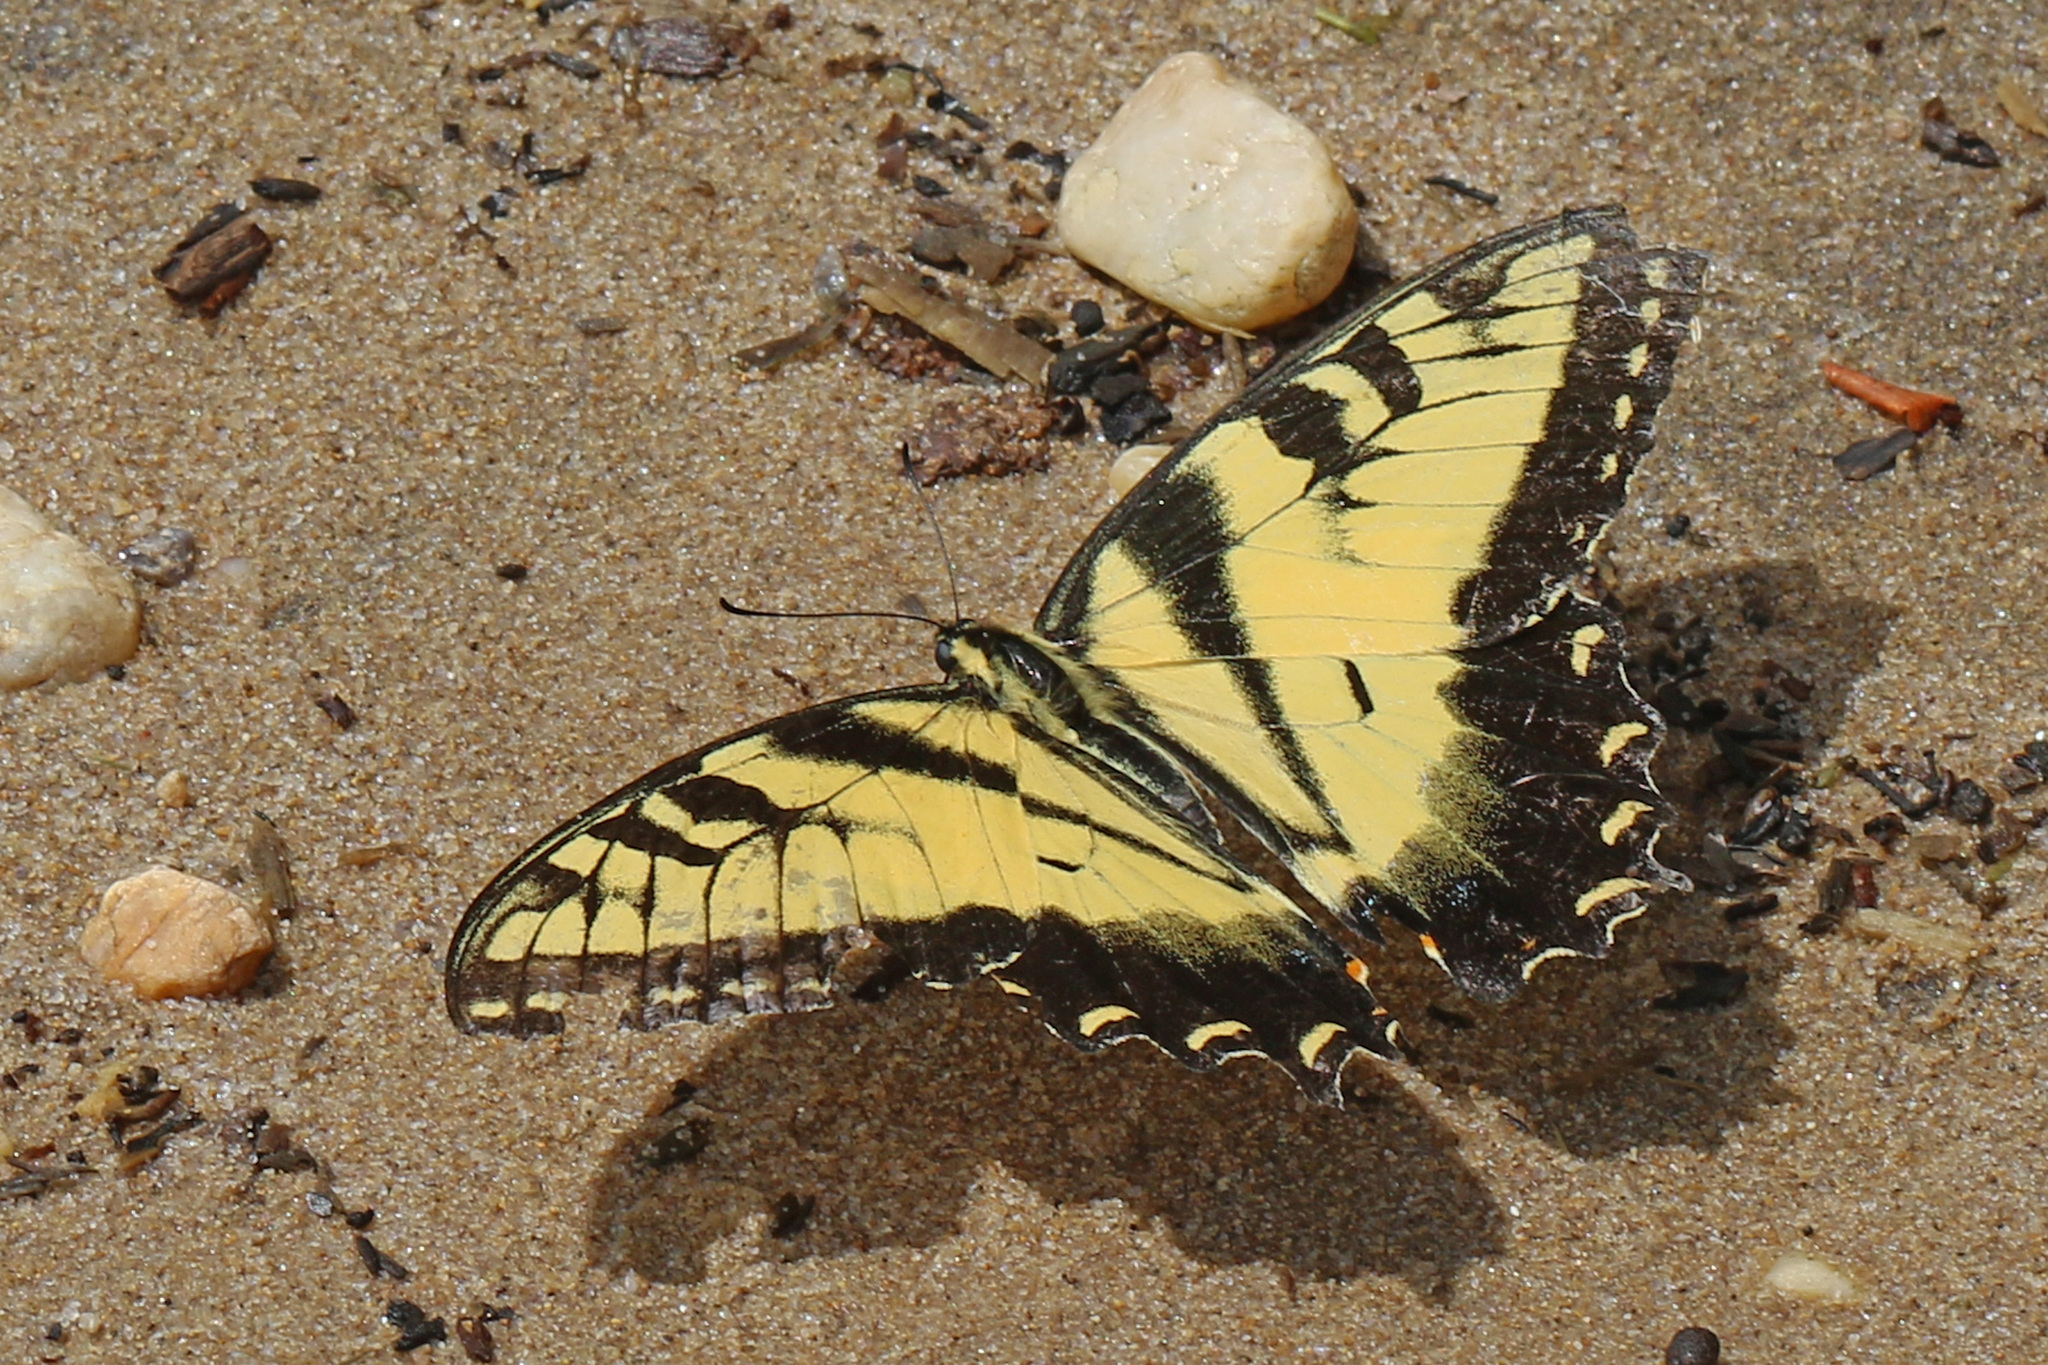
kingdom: Animalia
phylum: Arthropoda
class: Insecta
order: Lepidoptera
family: Papilionidae
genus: Papilio
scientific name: Papilio glaucus
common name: Tiger swallowtail
